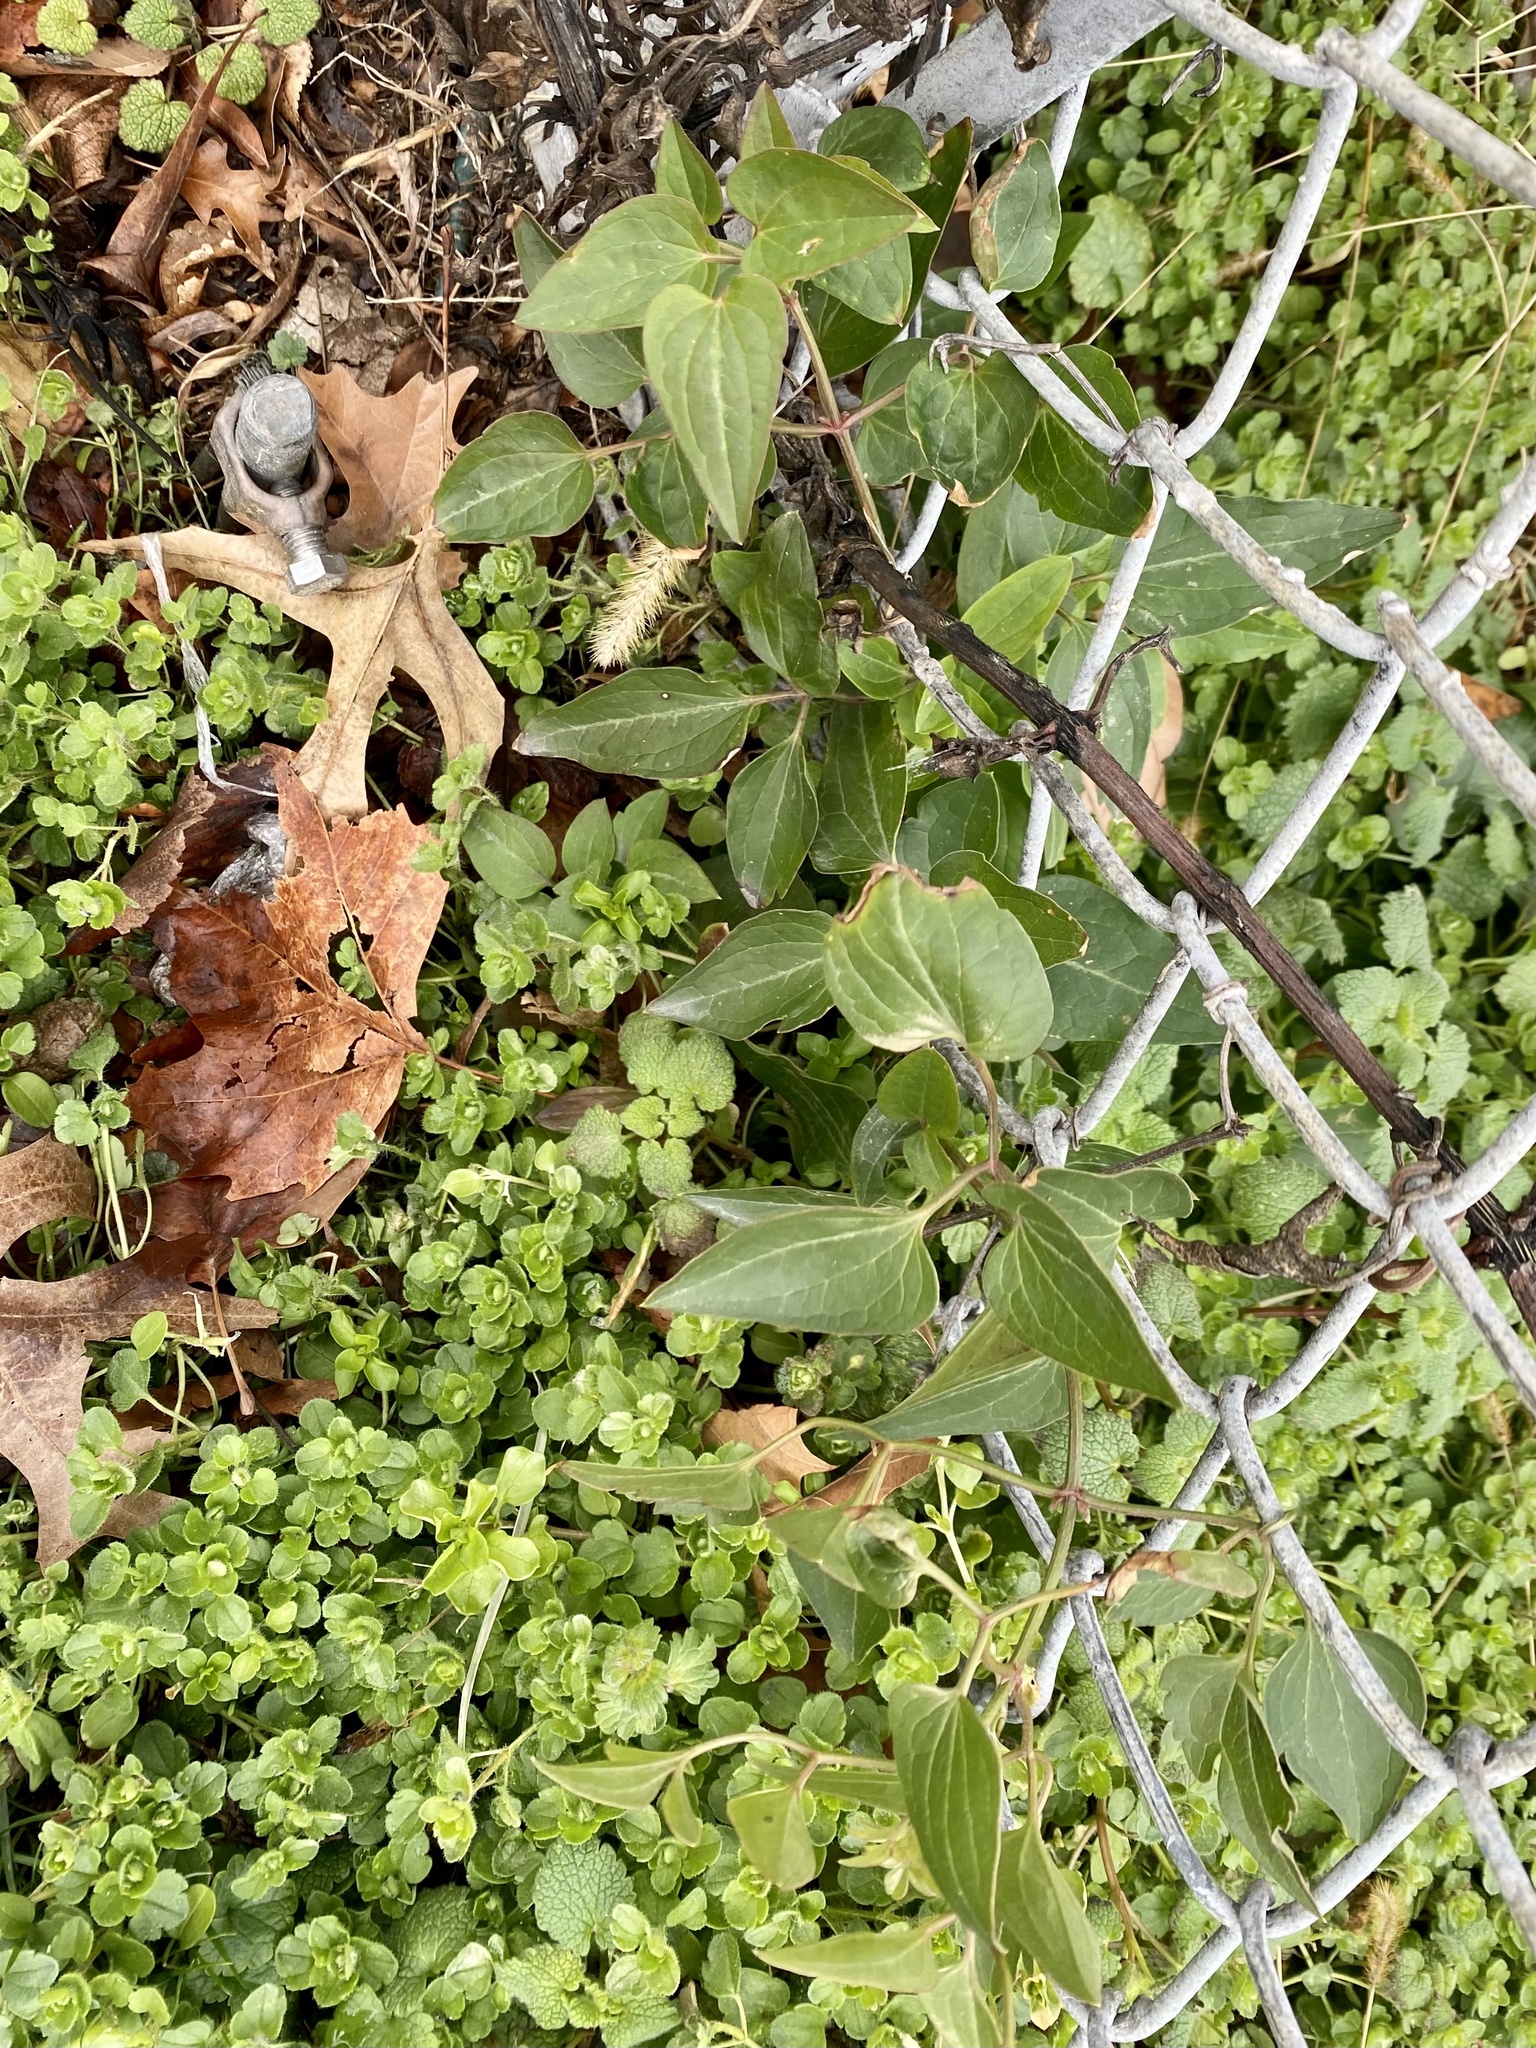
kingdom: Plantae
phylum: Tracheophyta
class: Magnoliopsida
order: Ranunculales
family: Ranunculaceae
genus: Clematis
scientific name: Clematis terniflora
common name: Sweet autumn clematis
